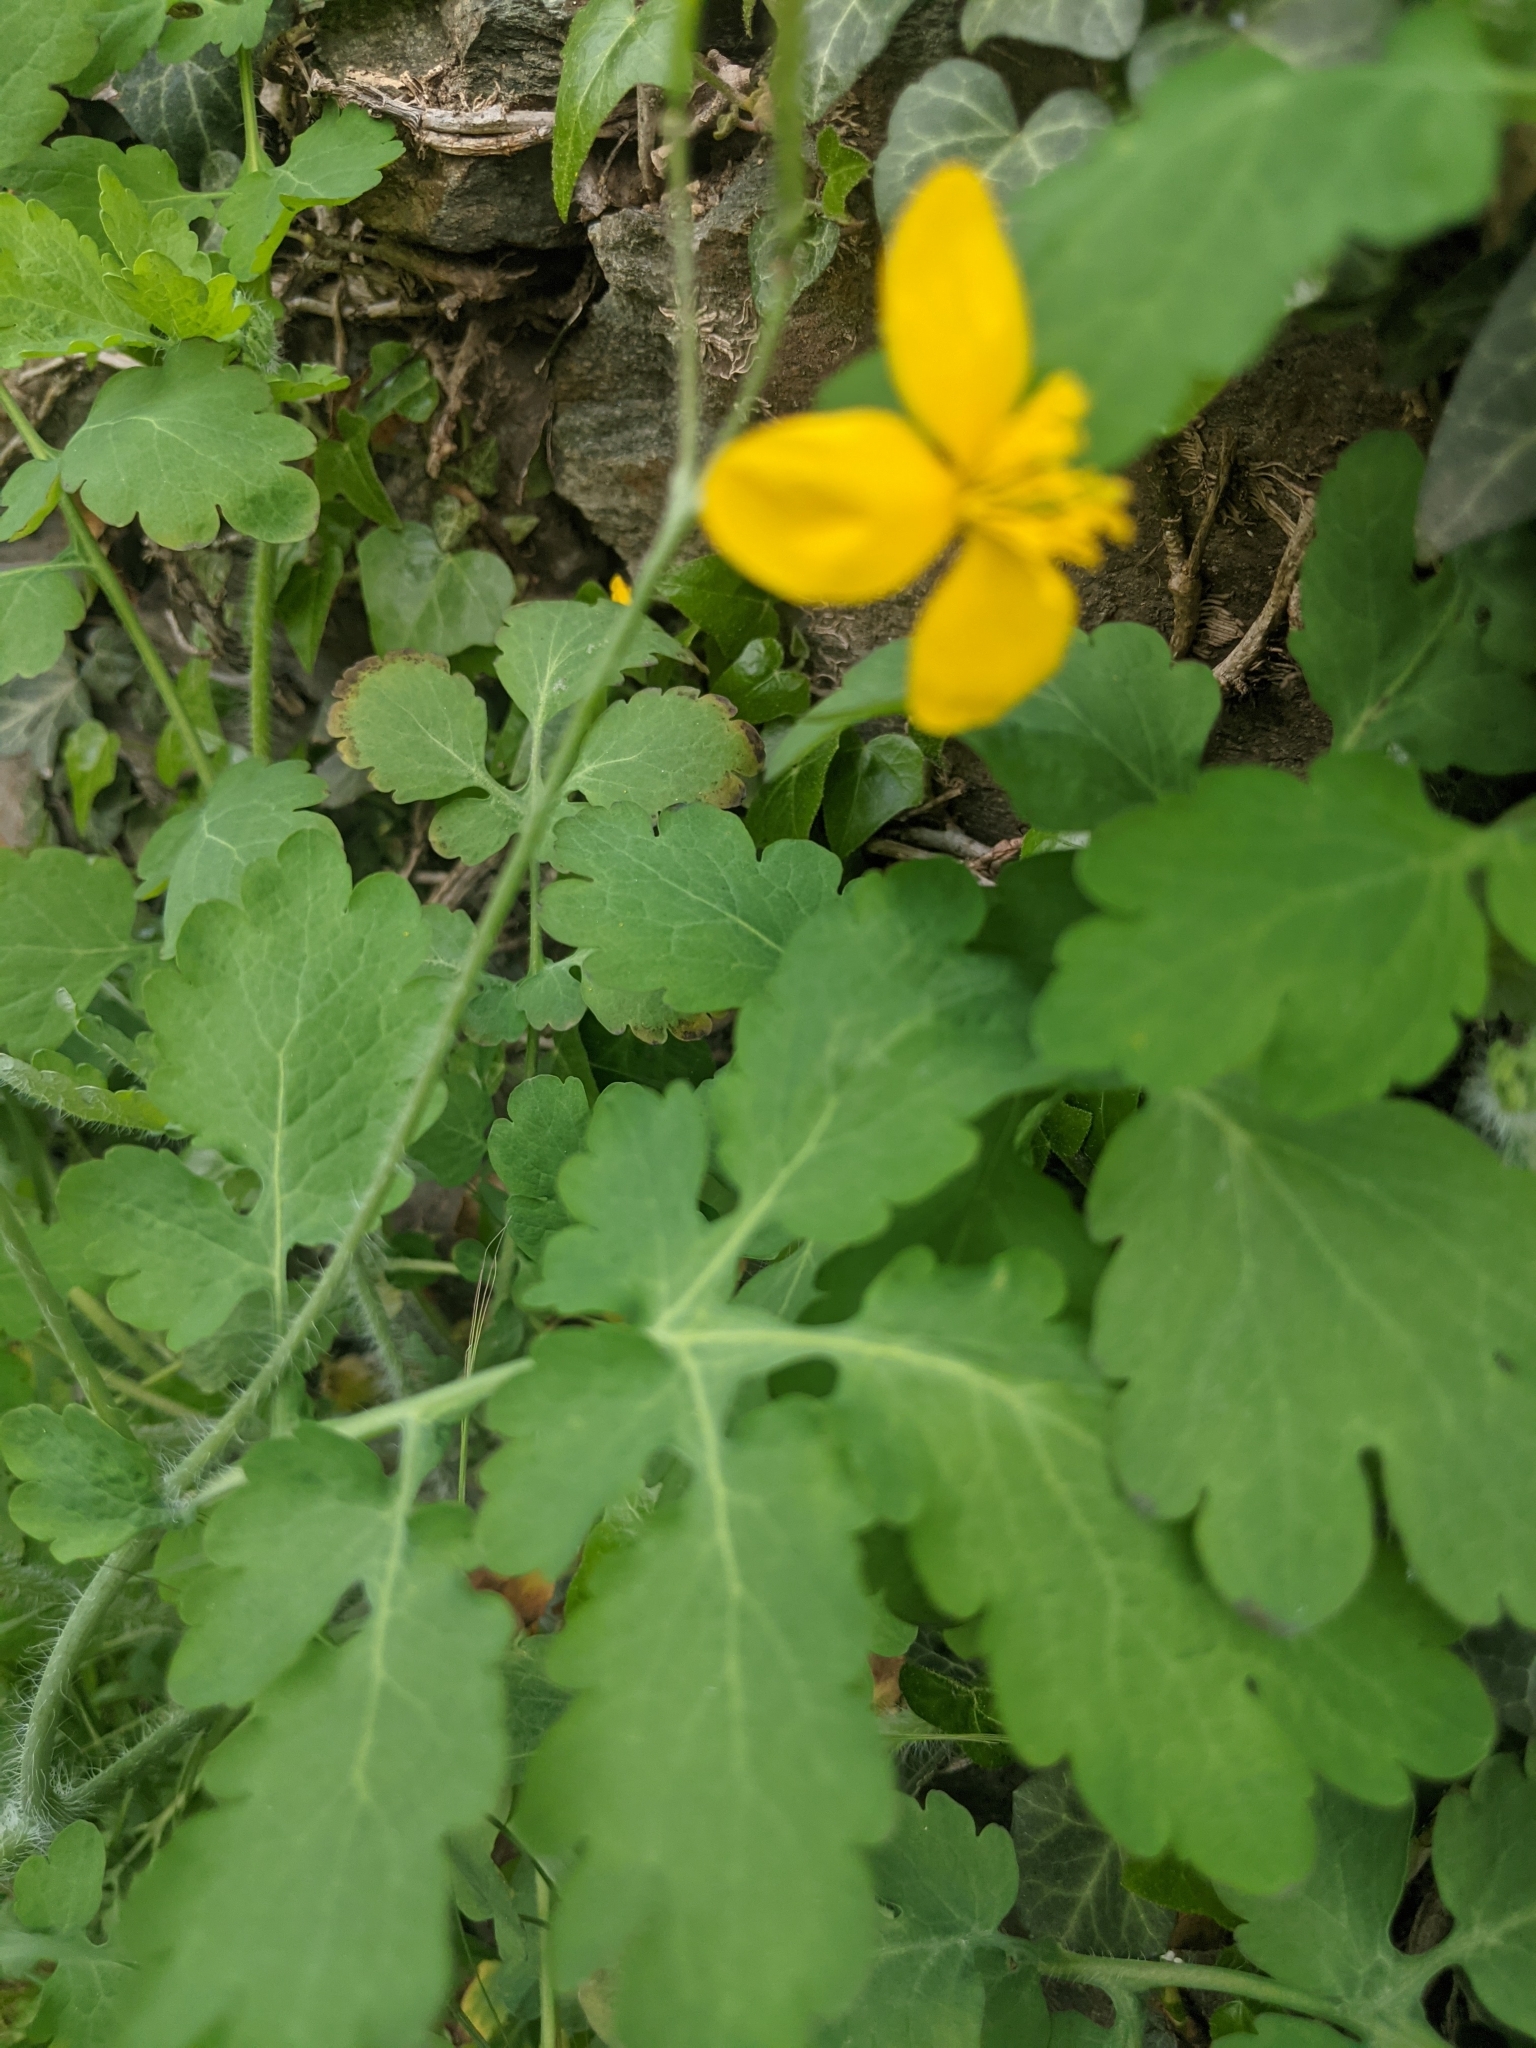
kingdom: Plantae
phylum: Tracheophyta
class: Magnoliopsida
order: Ranunculales
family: Papaveraceae
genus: Chelidonium
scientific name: Chelidonium majus
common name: Greater celandine
